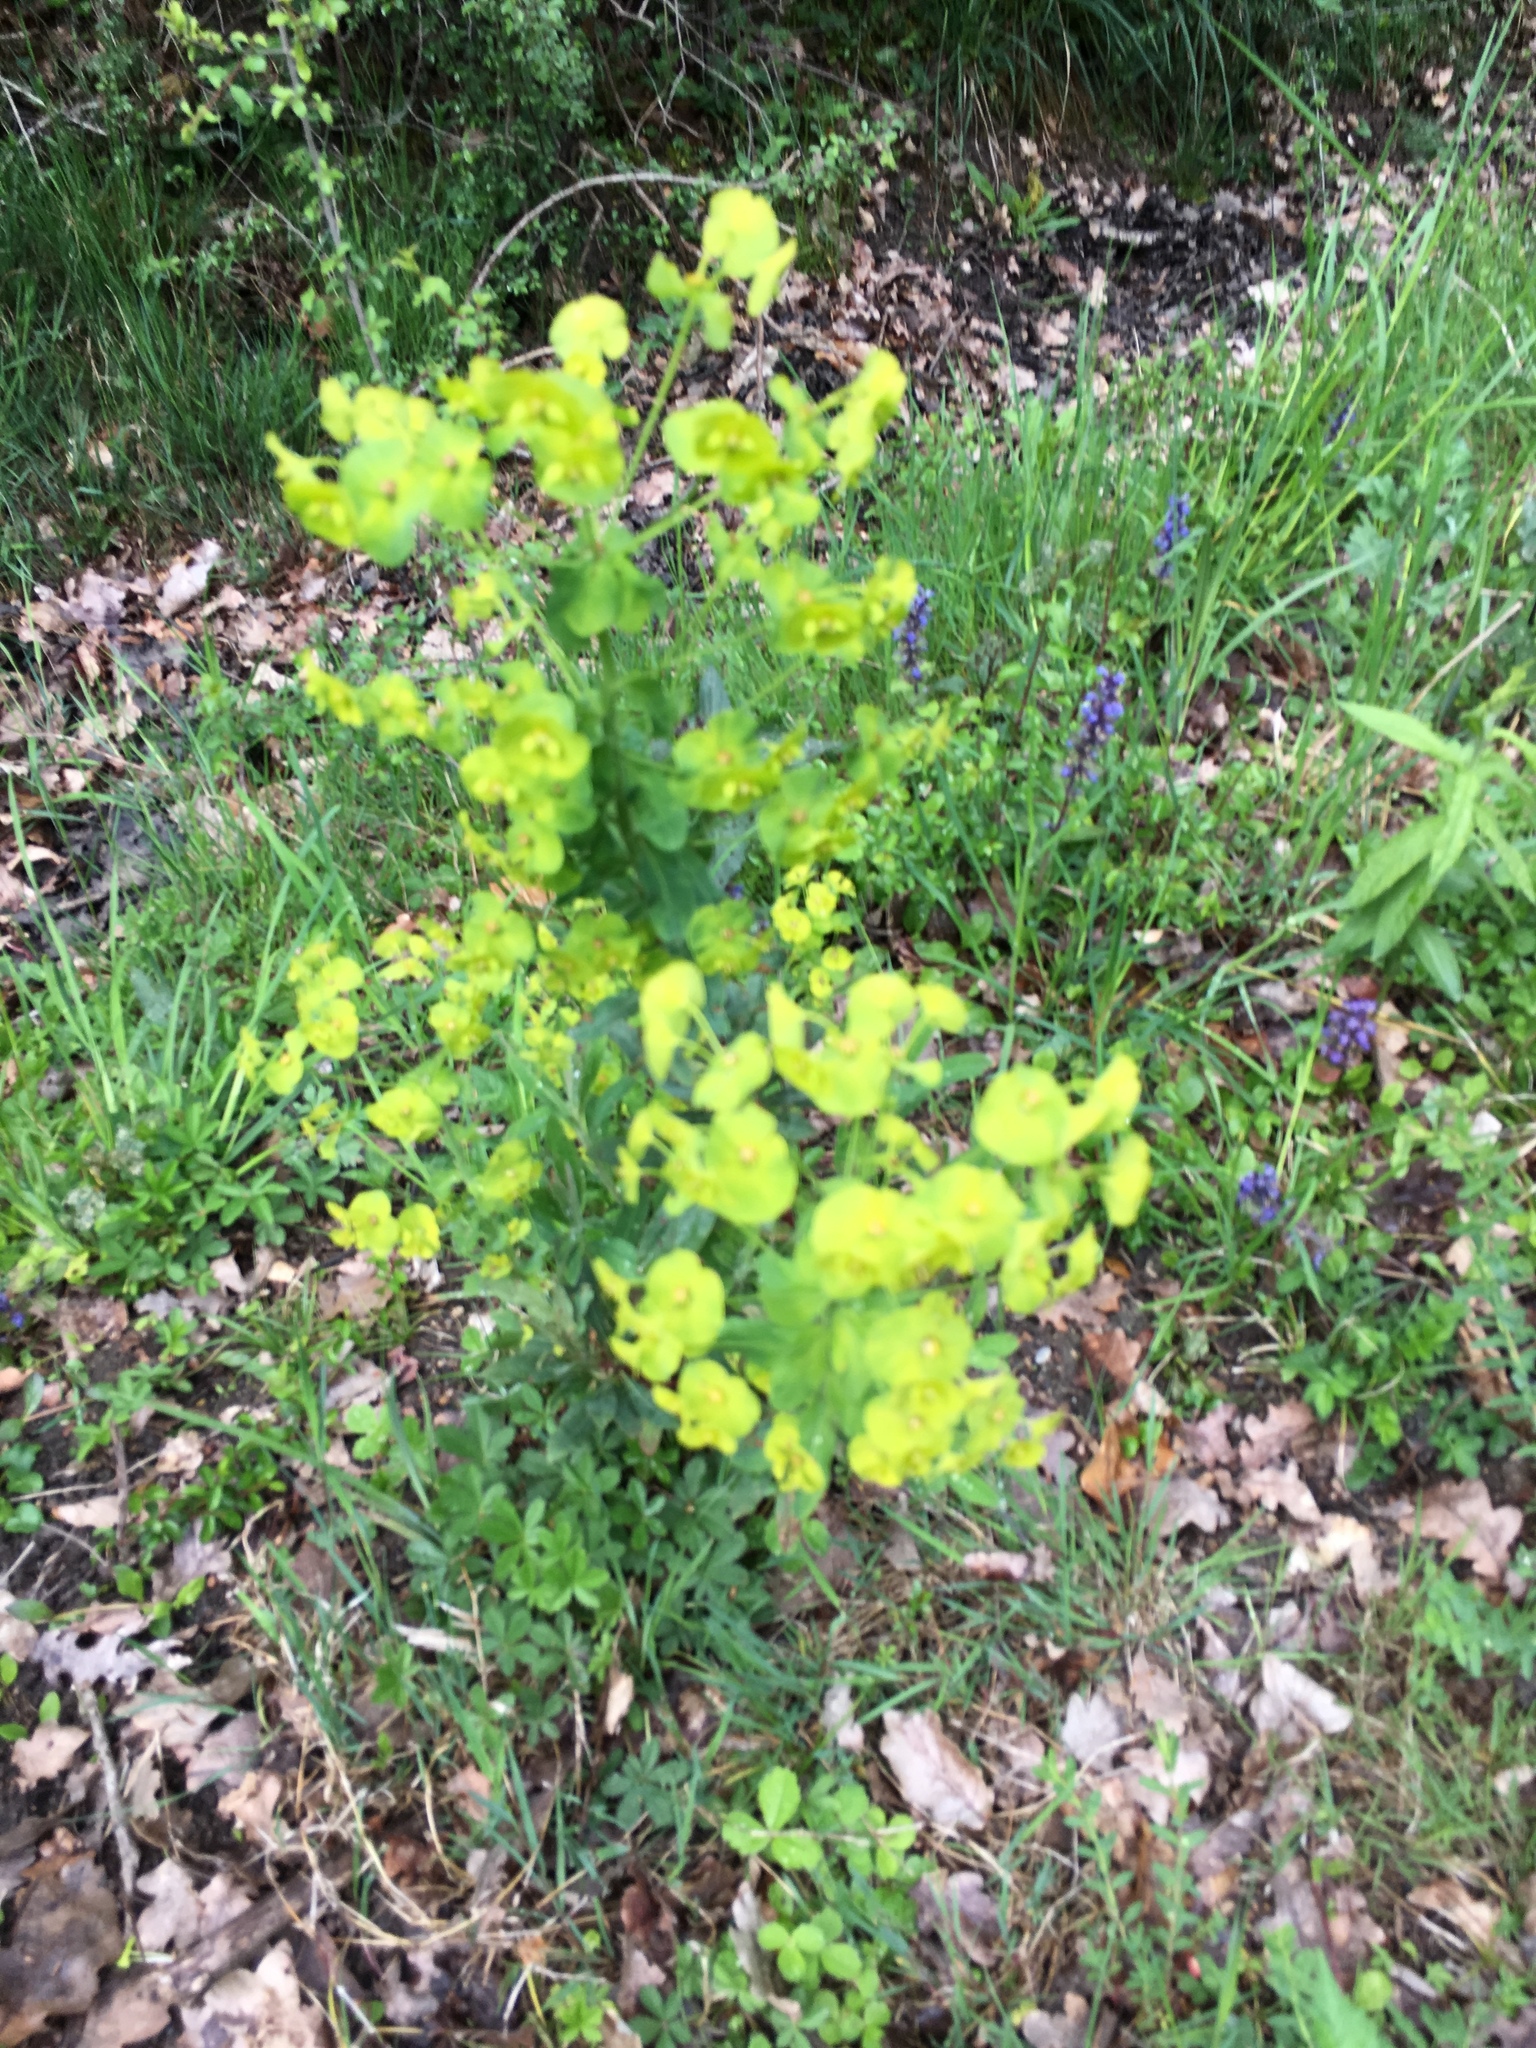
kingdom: Plantae
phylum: Tracheophyta
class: Magnoliopsida
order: Malpighiales
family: Euphorbiaceae
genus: Euphorbia
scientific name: Euphorbia amygdaloides
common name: Wood spurge
